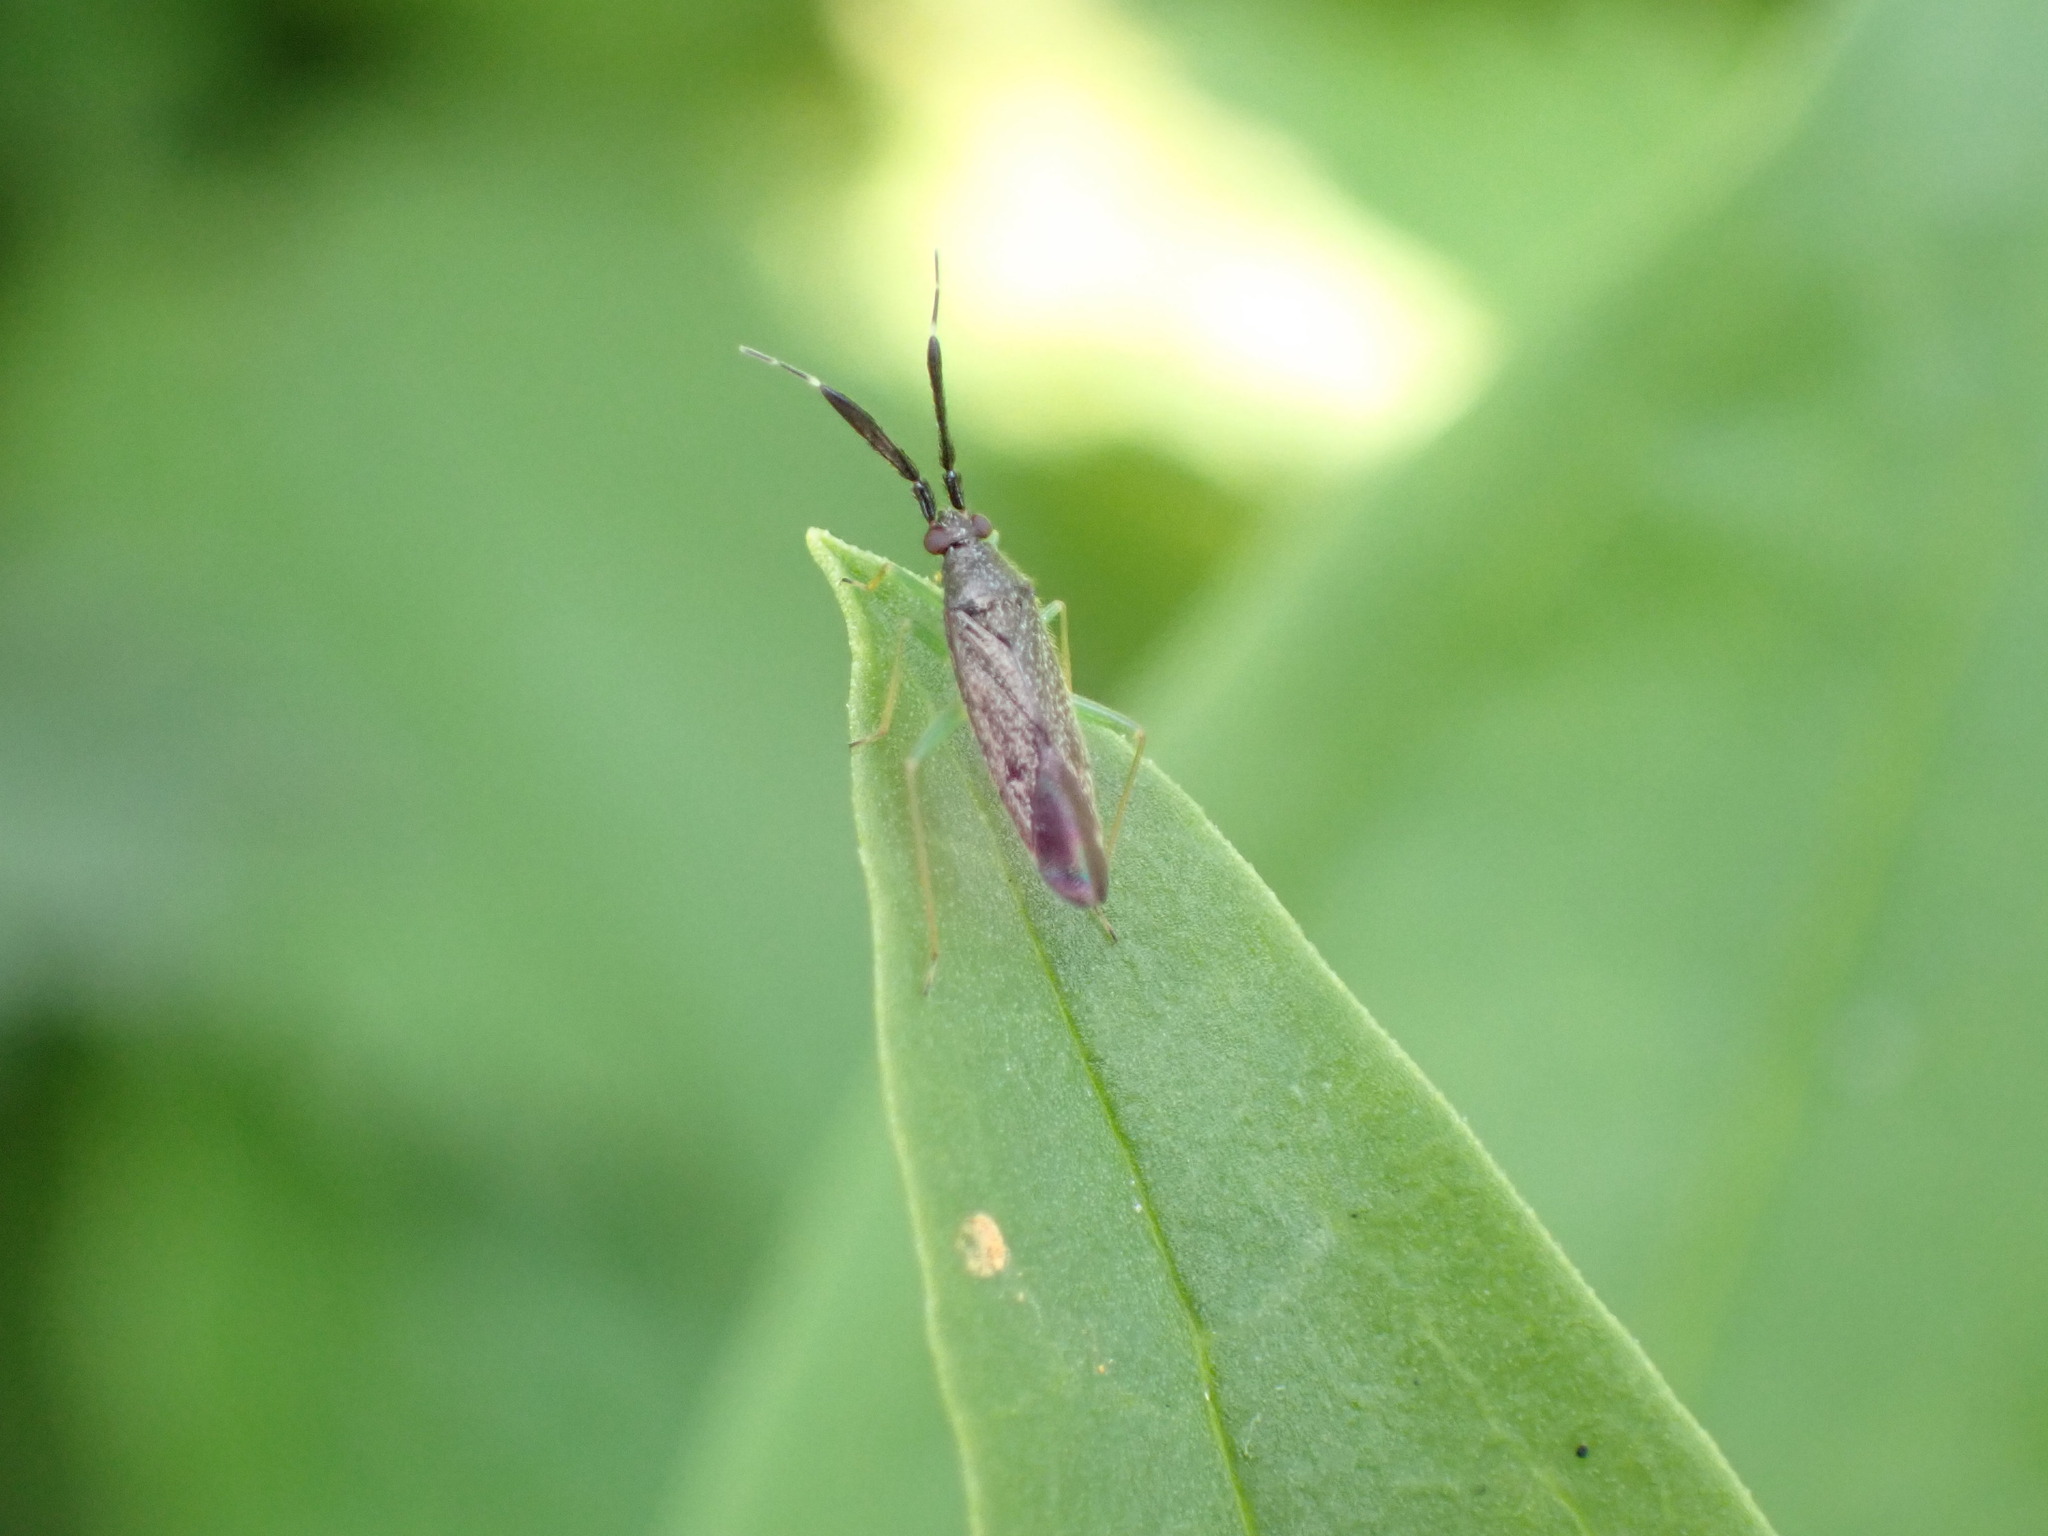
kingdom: Animalia
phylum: Arthropoda
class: Insecta
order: Hemiptera
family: Miridae
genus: Heterotoma
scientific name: Heterotoma planicornis
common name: Plant bug
